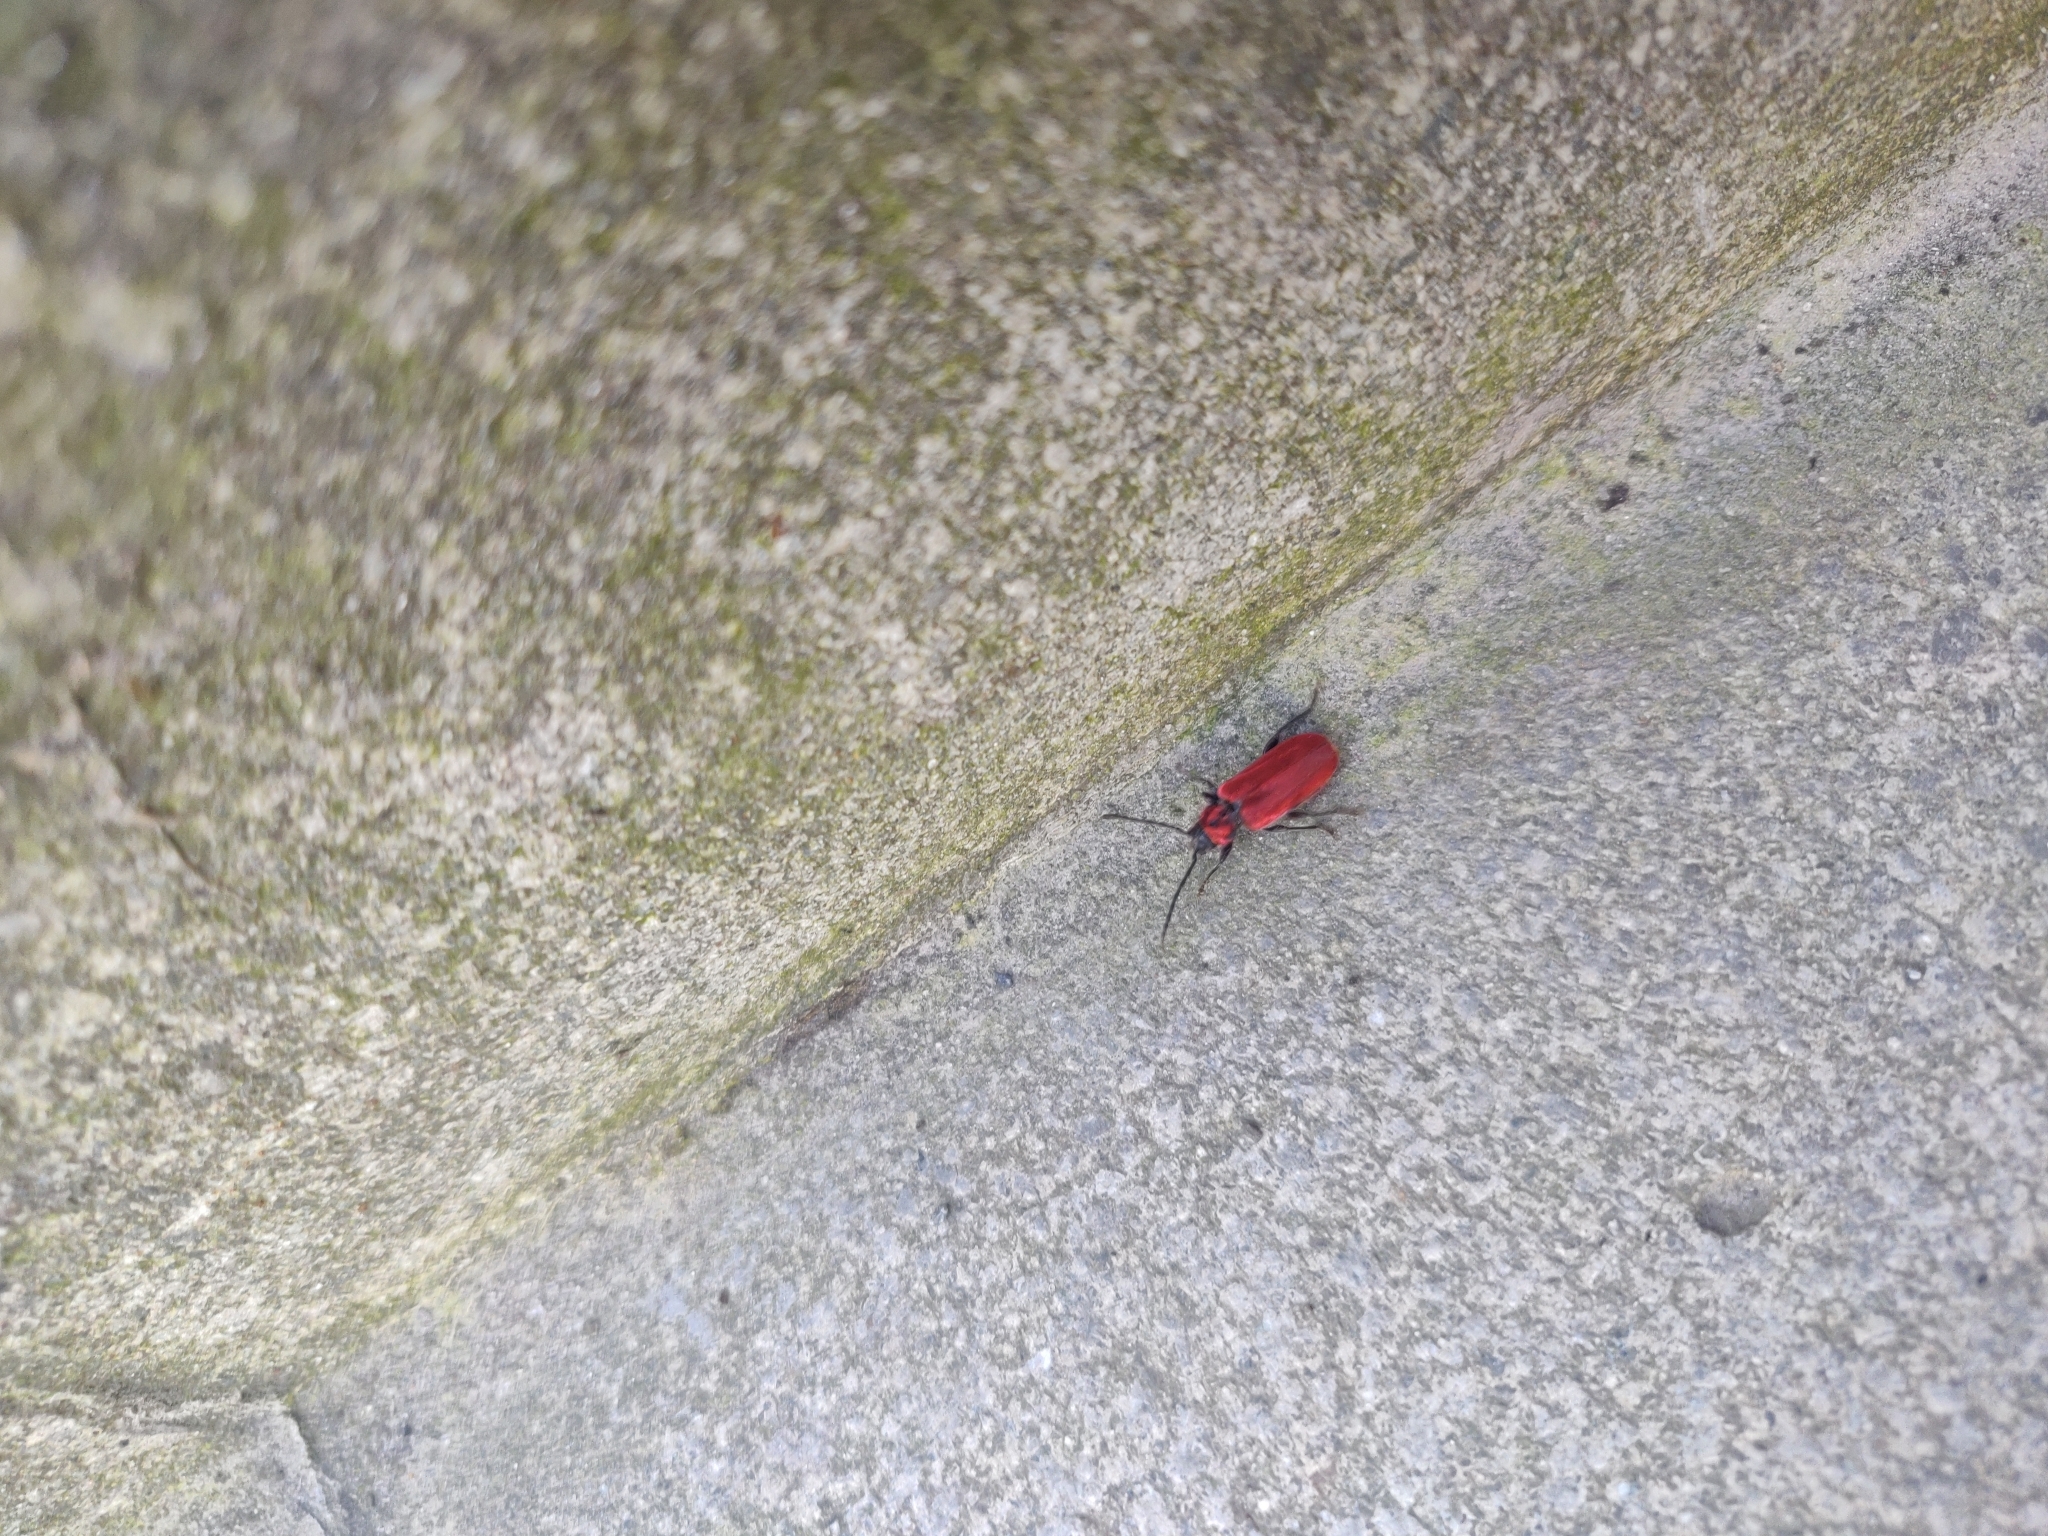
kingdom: Animalia
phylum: Arthropoda
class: Insecta
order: Coleoptera
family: Cerambycidae
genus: Pyrrhidium
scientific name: Pyrrhidium sanguineum
